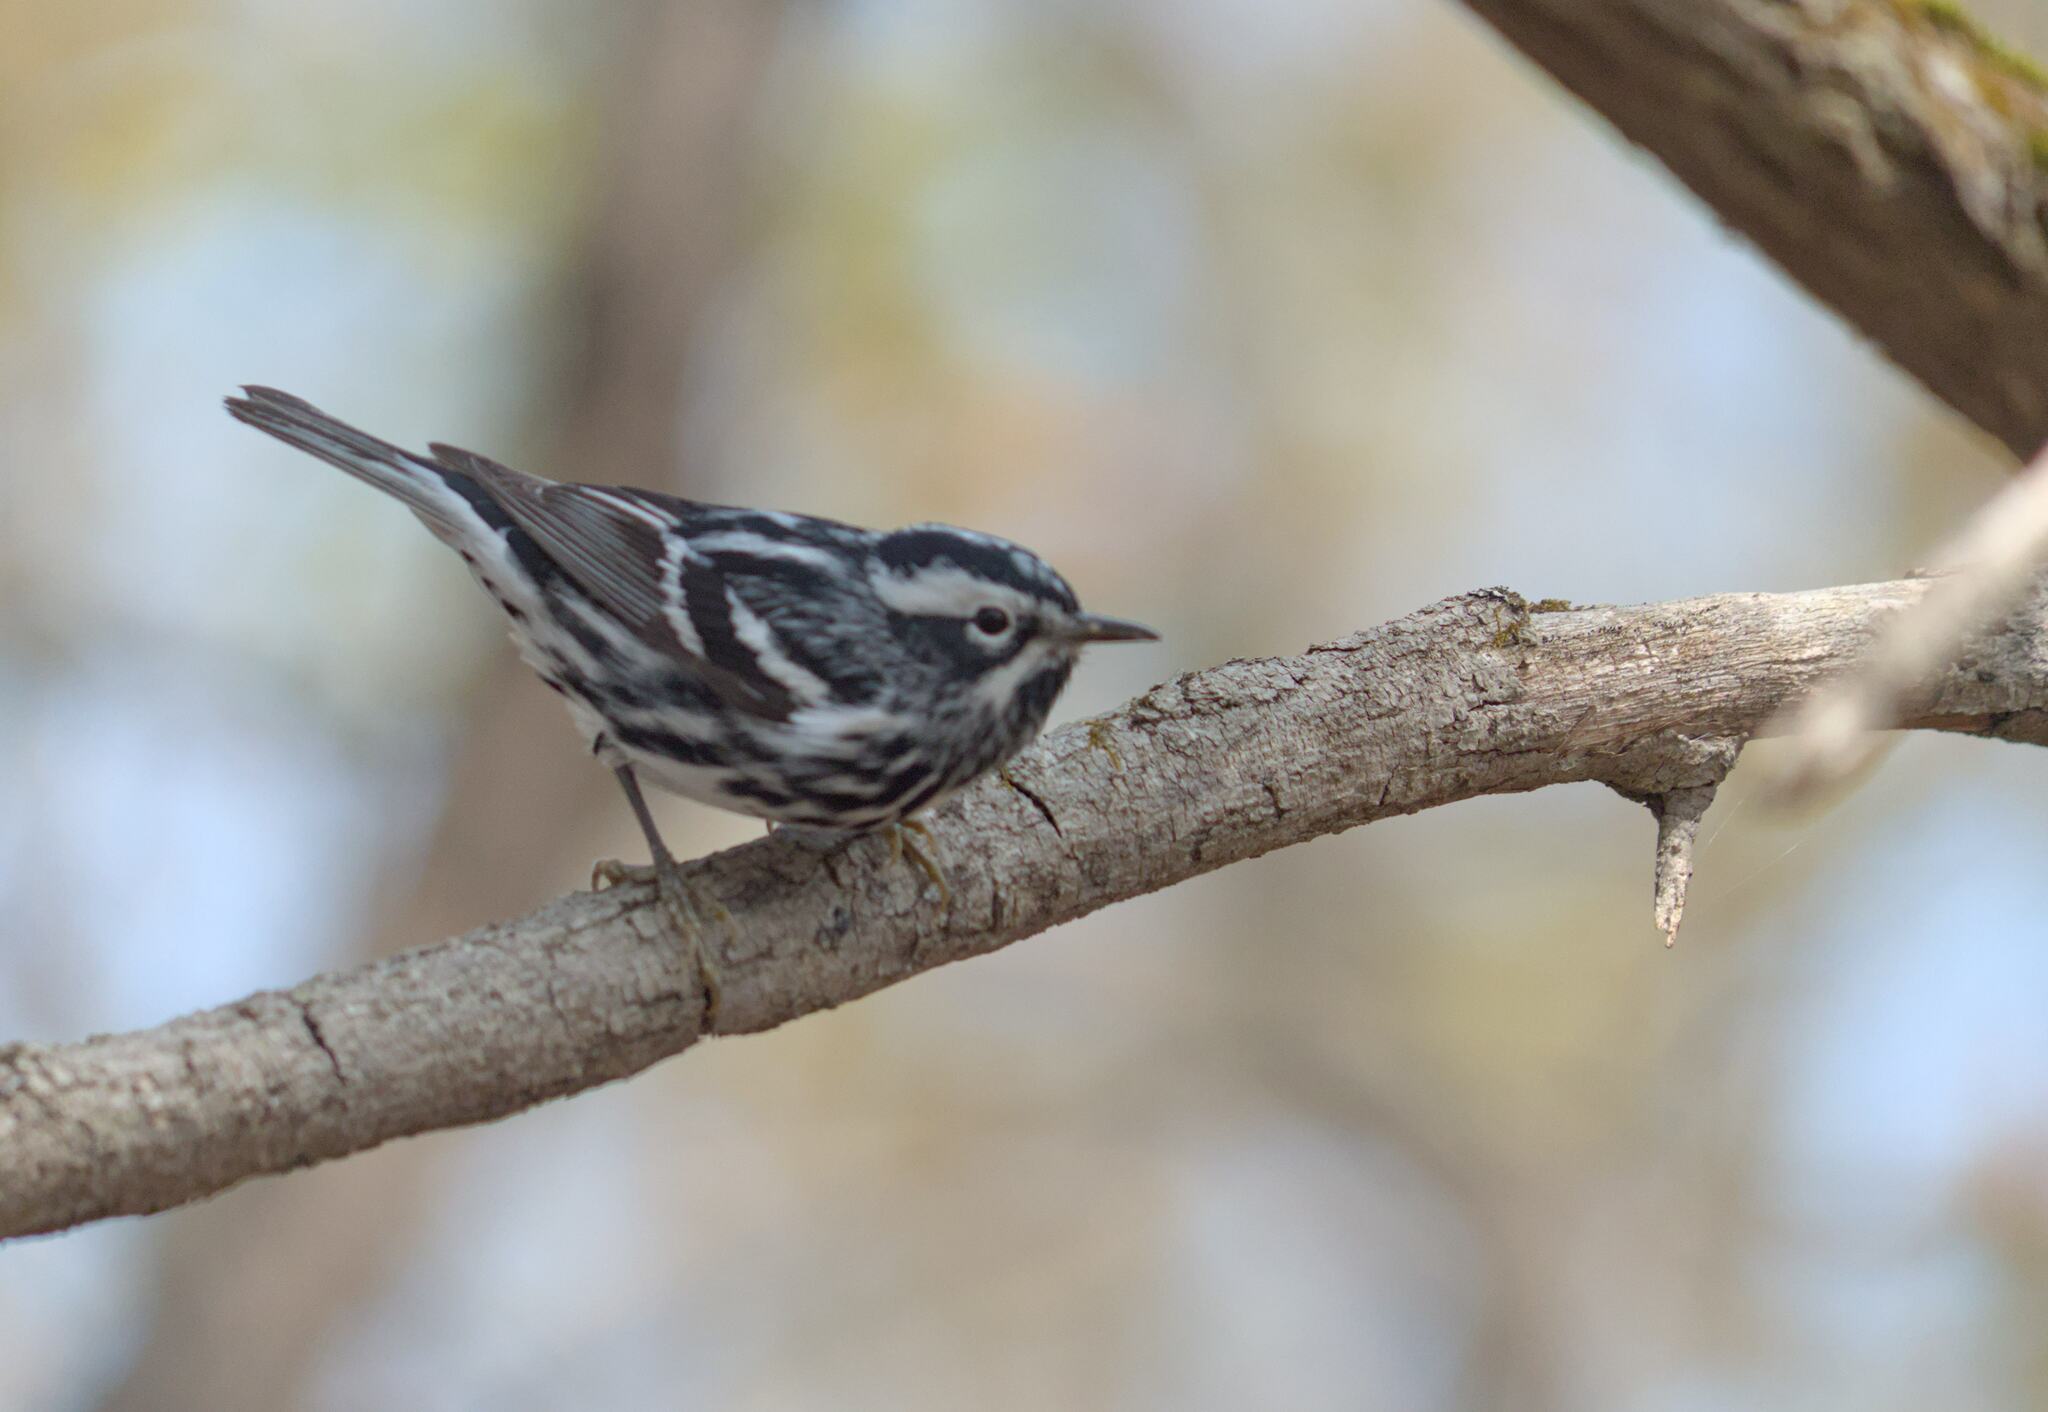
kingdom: Animalia
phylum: Chordata
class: Aves
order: Passeriformes
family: Parulidae
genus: Mniotilta
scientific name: Mniotilta varia
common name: Black-and-white warbler
